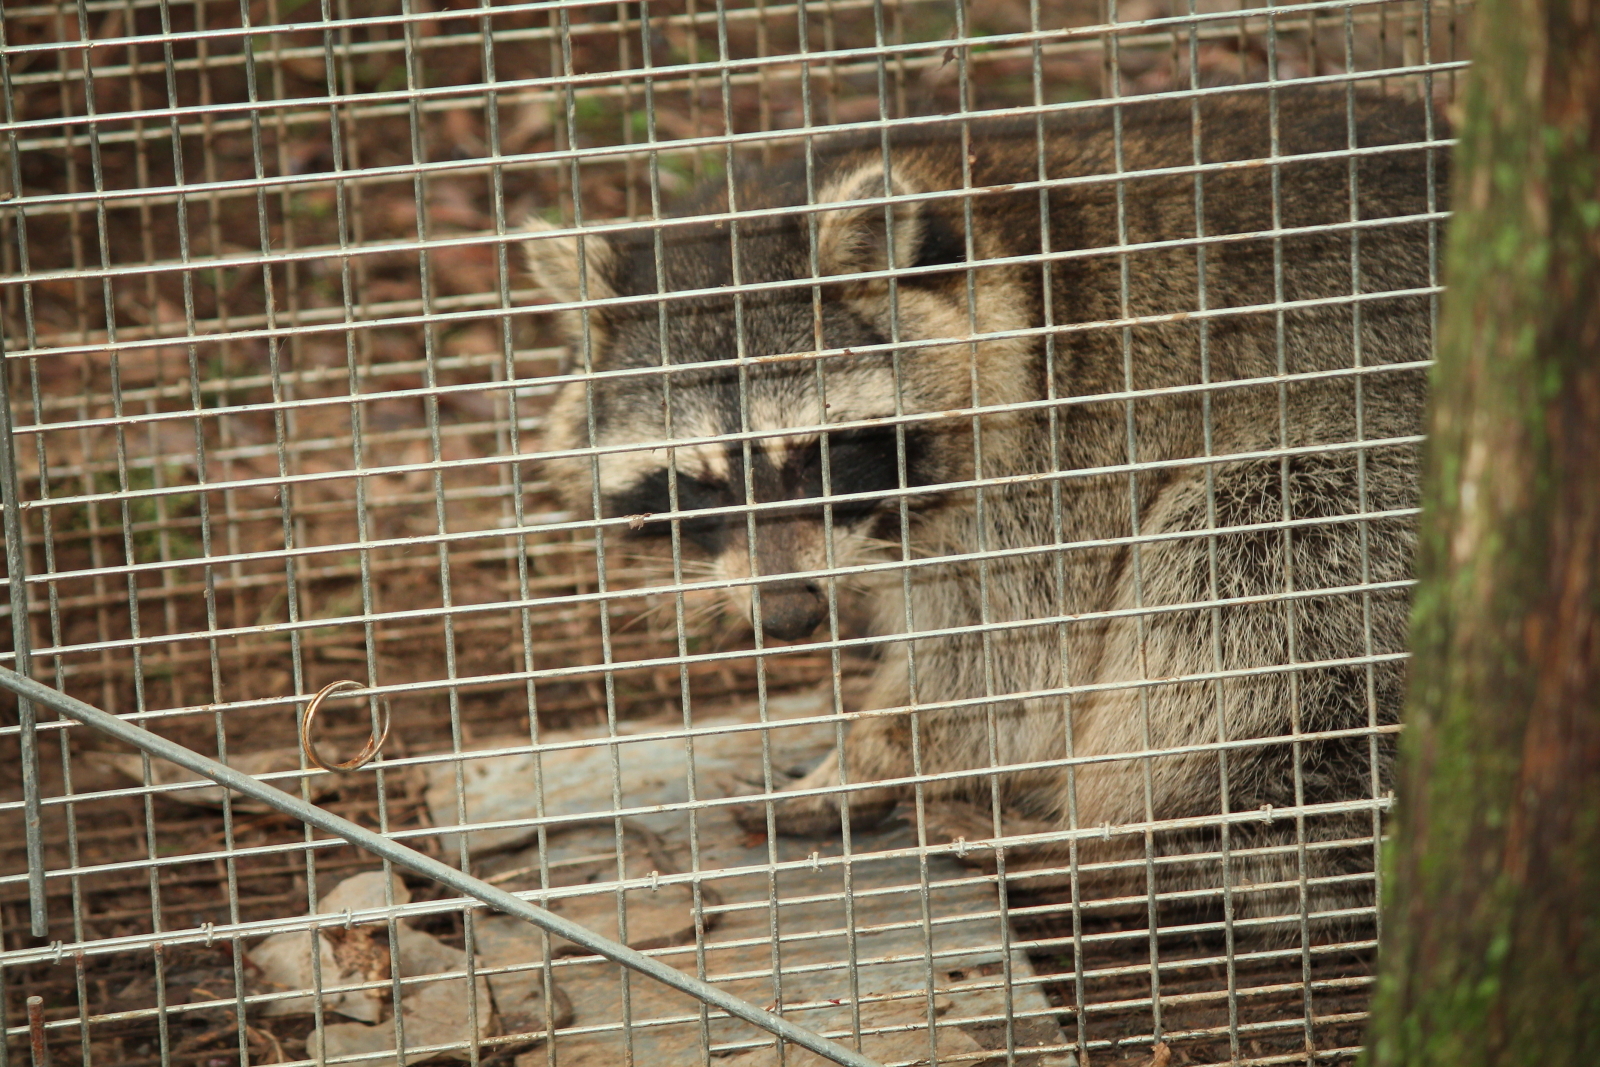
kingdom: Animalia
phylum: Chordata
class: Mammalia
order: Carnivora
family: Procyonidae
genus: Procyon
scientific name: Procyon lotor
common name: Raccoon
